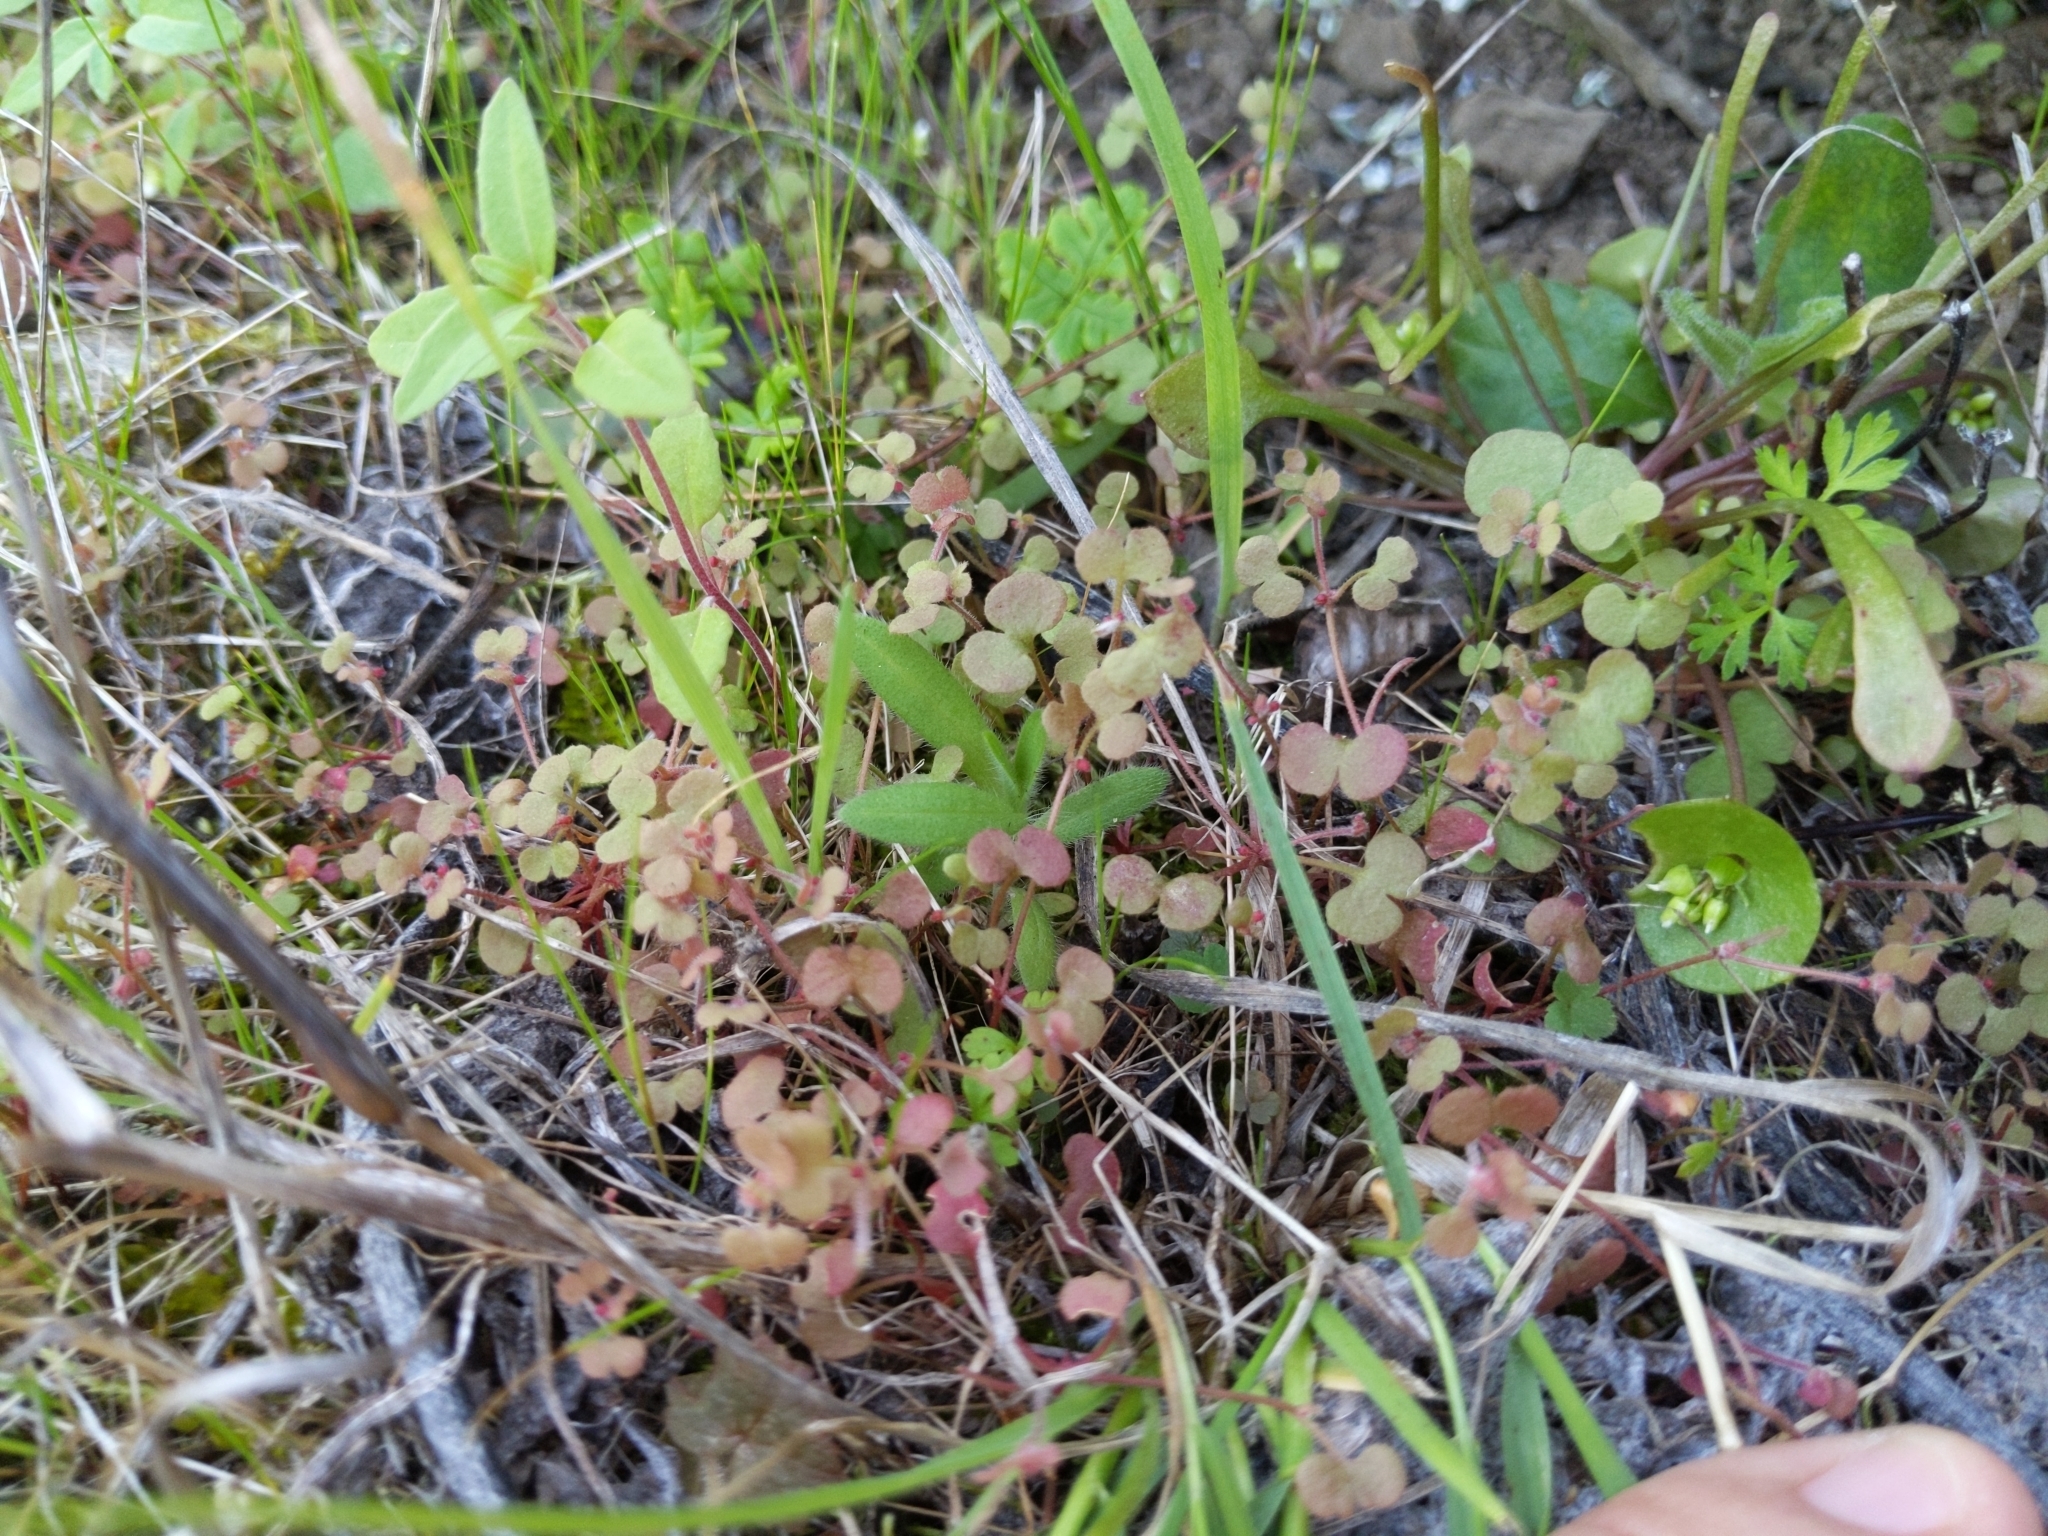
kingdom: Plantae
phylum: Tracheophyta
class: Magnoliopsida
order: Caryophyllales
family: Polygonaceae
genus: Pterostegia
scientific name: Pterostegia drymarioides
